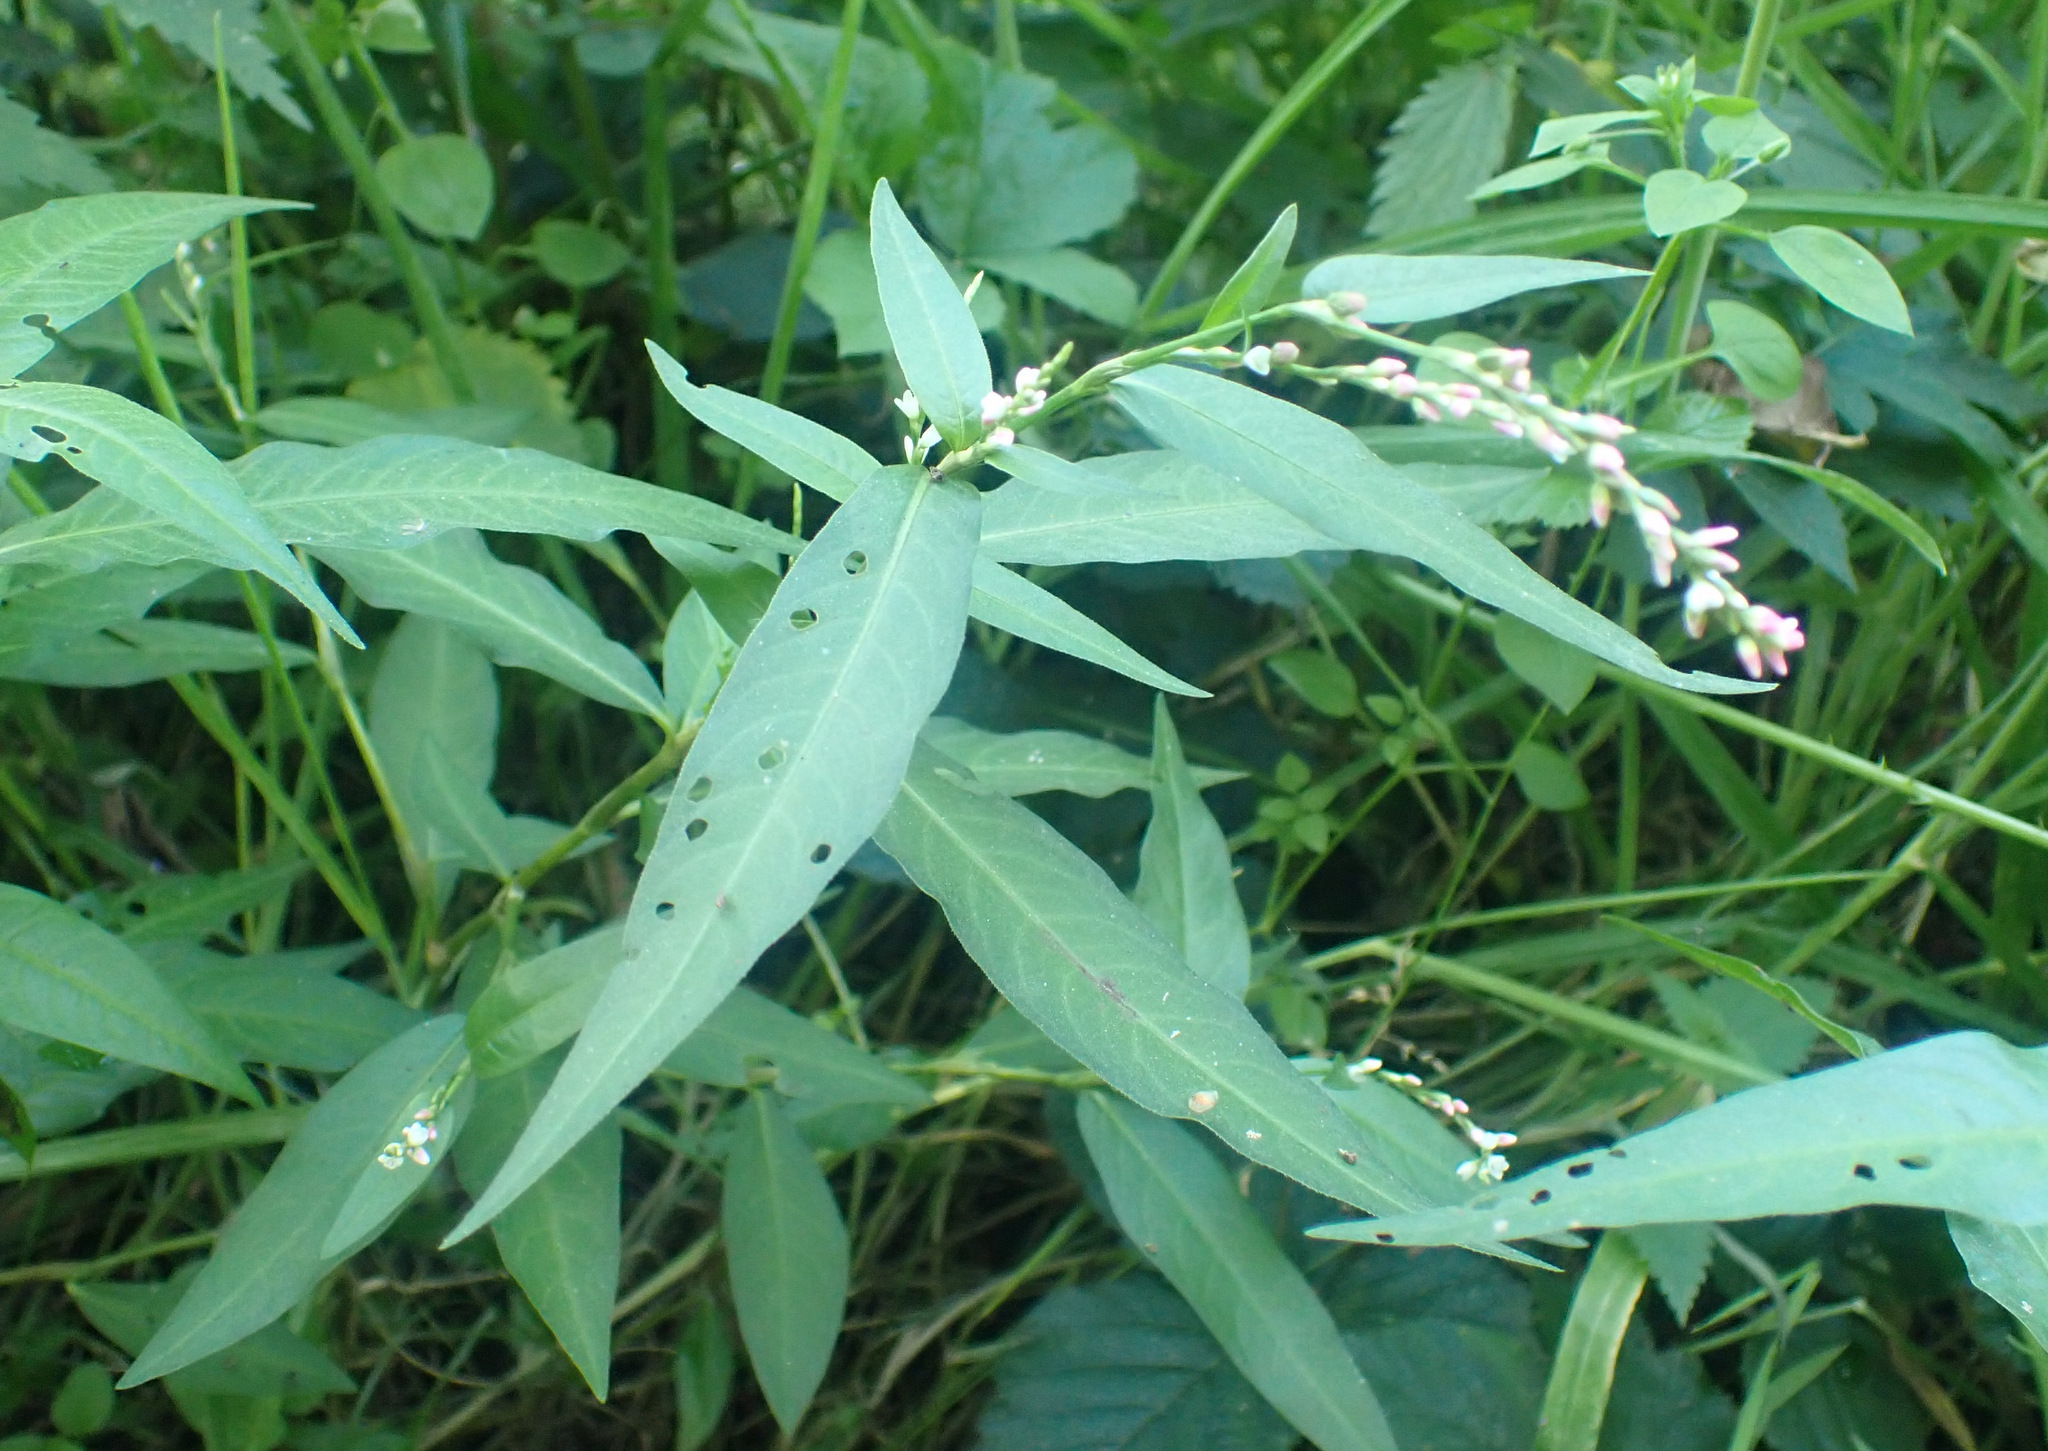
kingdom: Plantae
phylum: Tracheophyta
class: Magnoliopsida
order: Caryophyllales
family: Polygonaceae
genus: Persicaria
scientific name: Persicaria mitis
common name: Tasteless water-pepper
